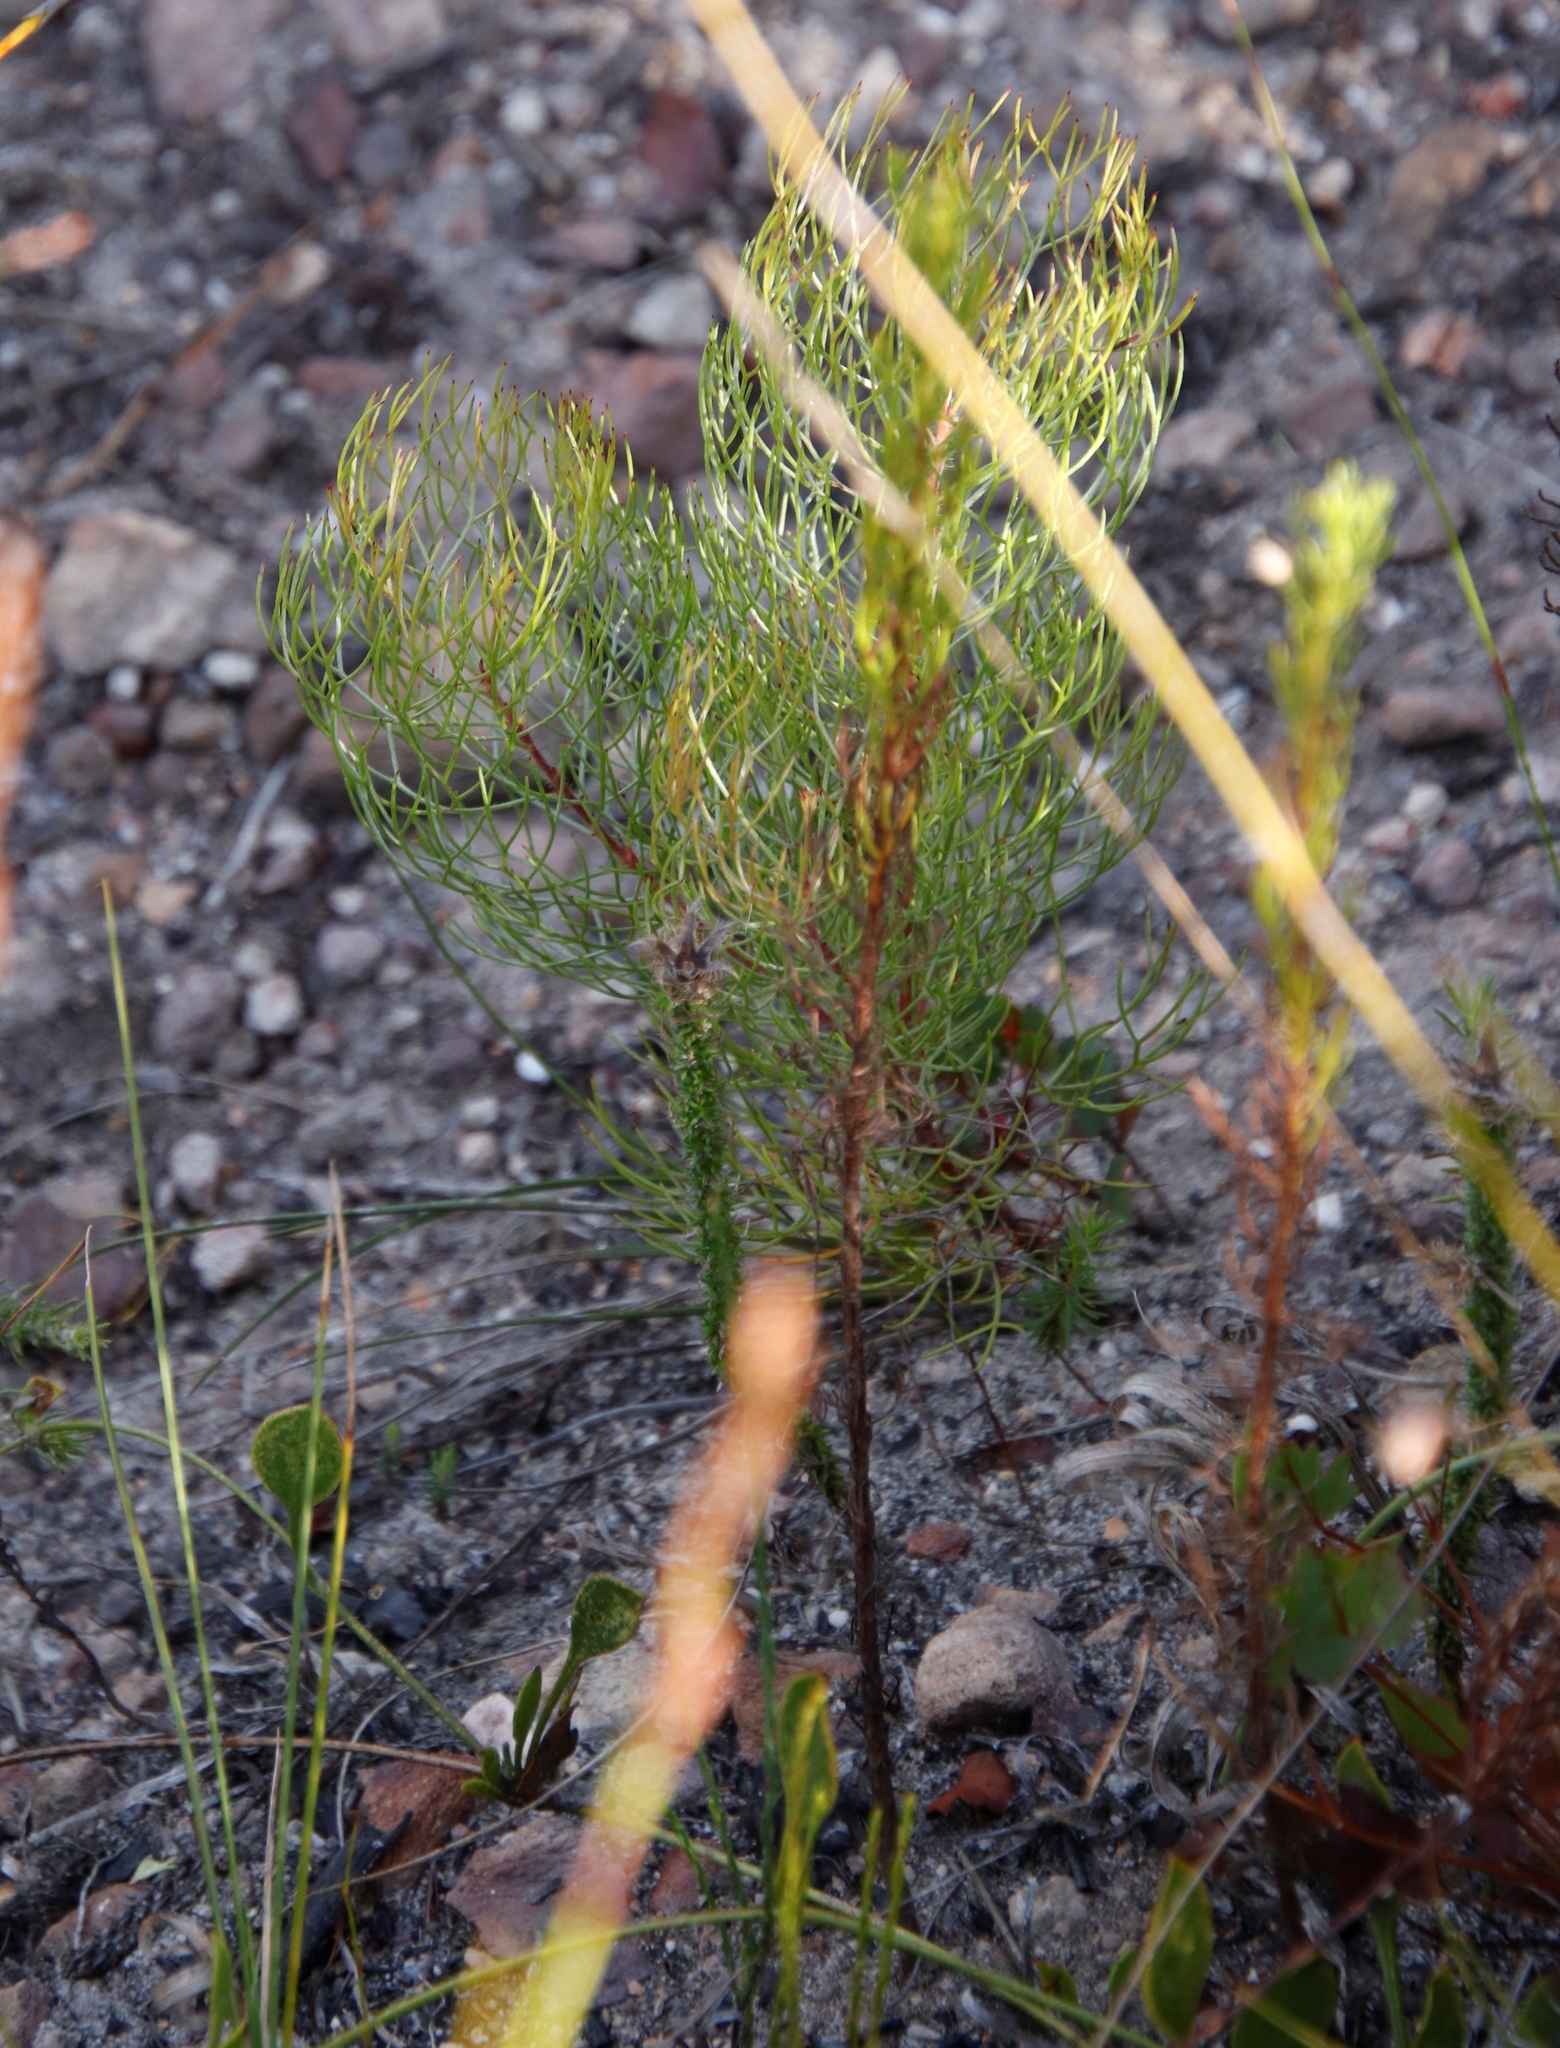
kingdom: Plantae
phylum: Tracheophyta
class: Magnoliopsida
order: Proteales
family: Proteaceae
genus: Serruria
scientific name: Serruria fasciflora
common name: Common pin spiderhead
